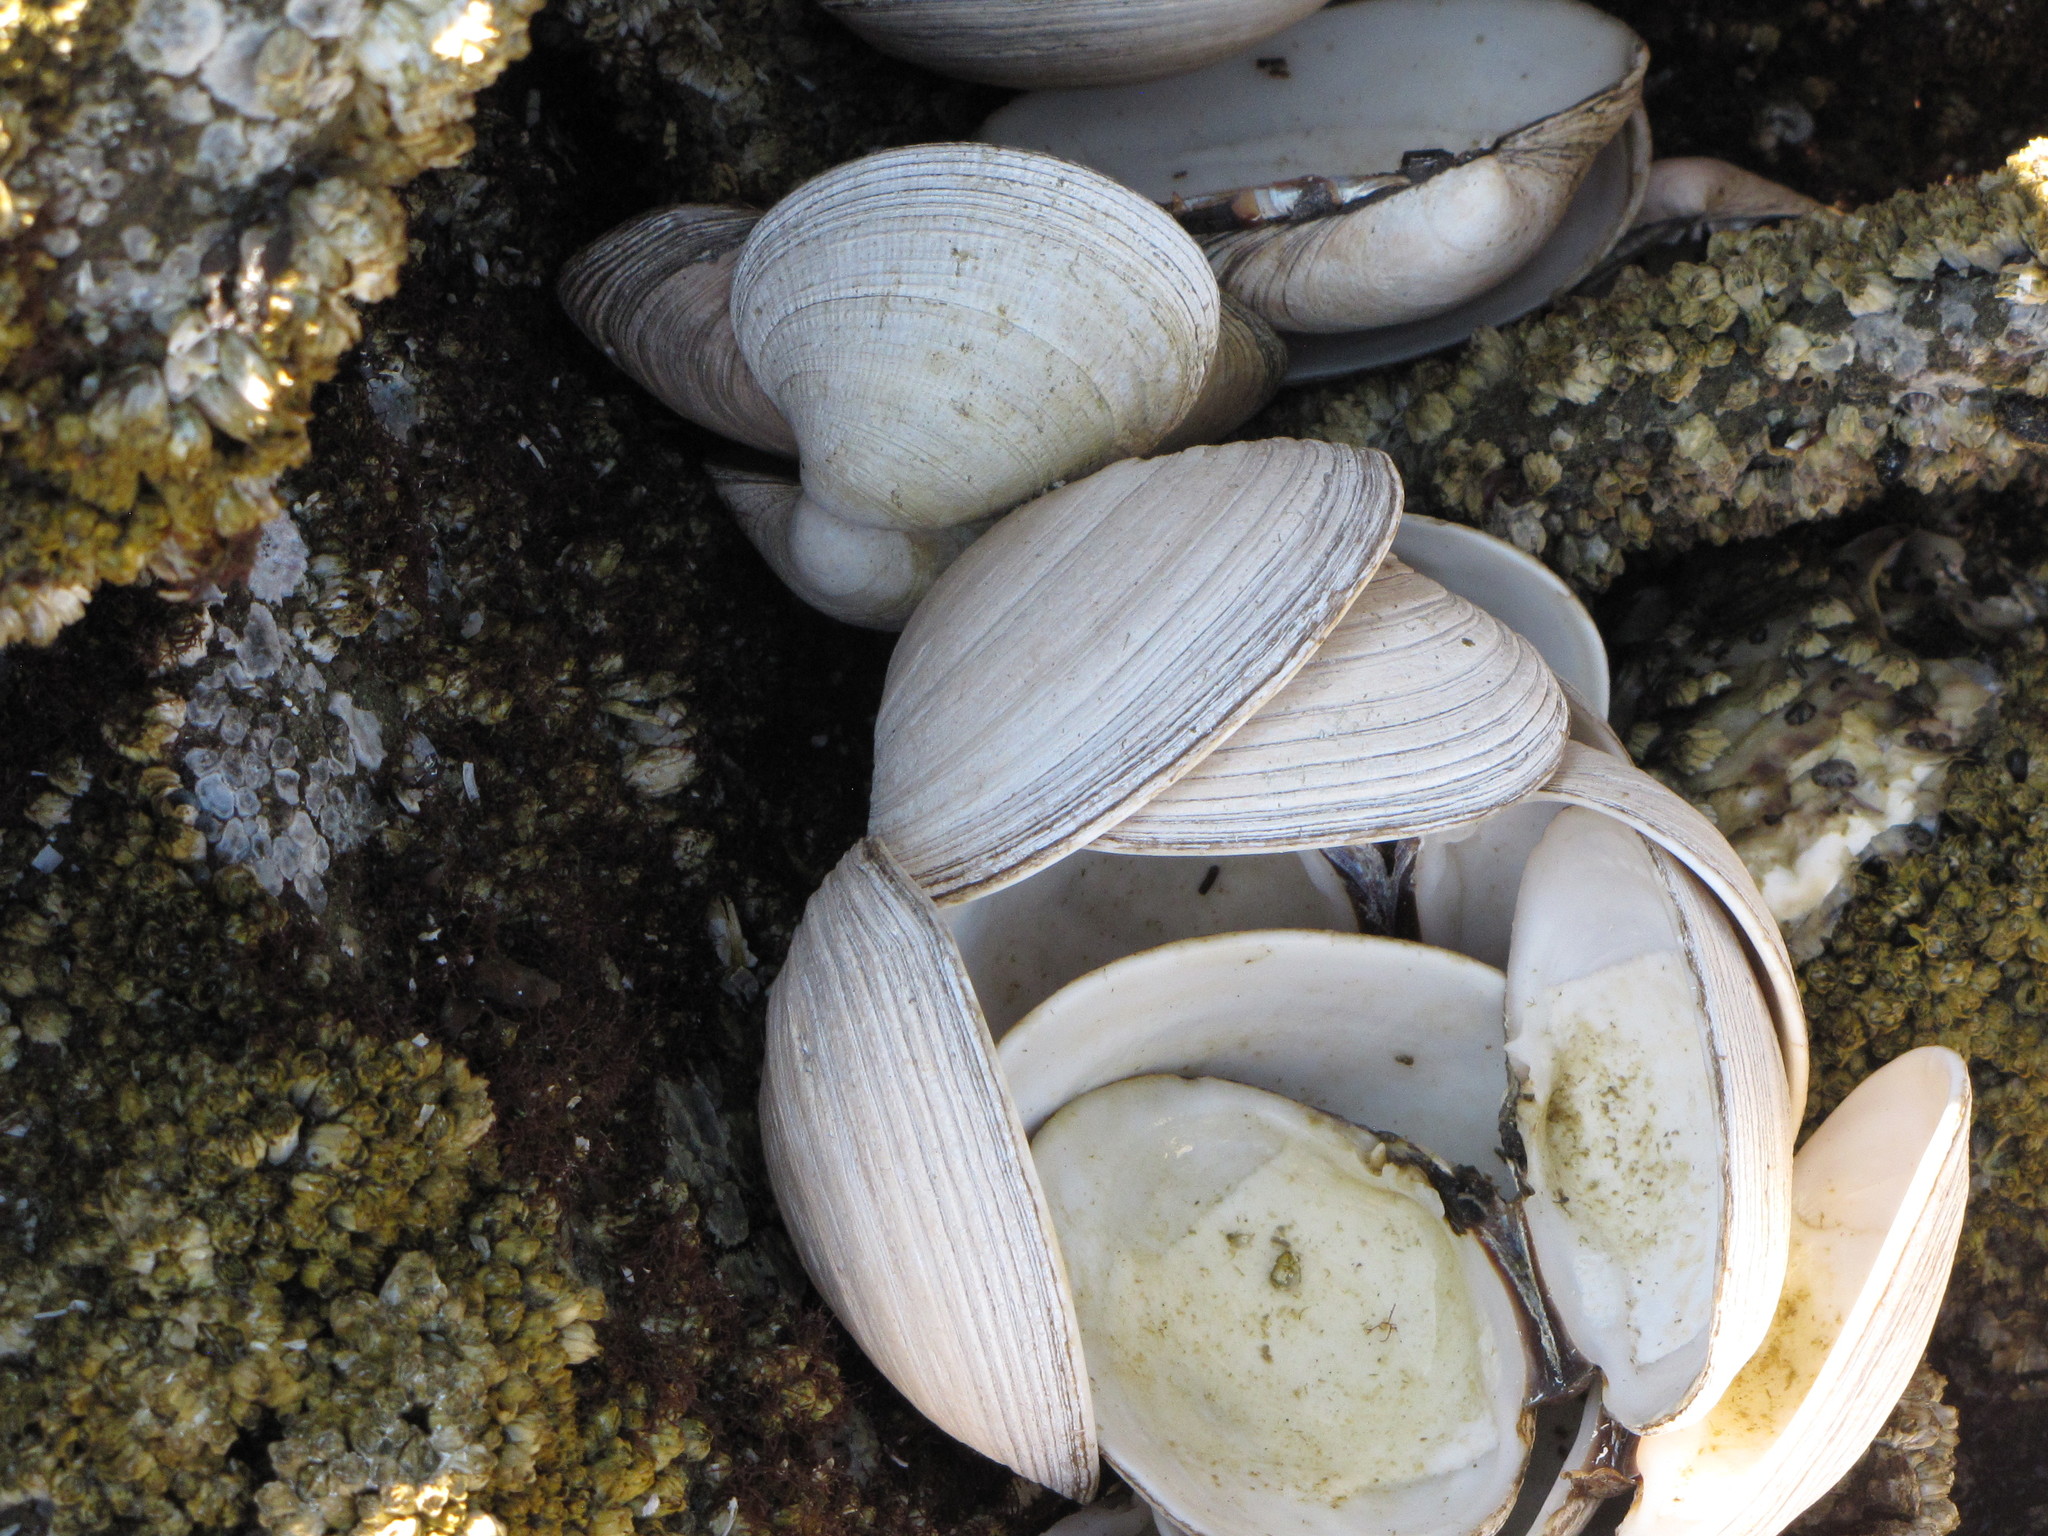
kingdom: Animalia
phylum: Mollusca
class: Bivalvia
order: Venerida
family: Veneridae
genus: Saxidomus
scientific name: Saxidomus gigantea
